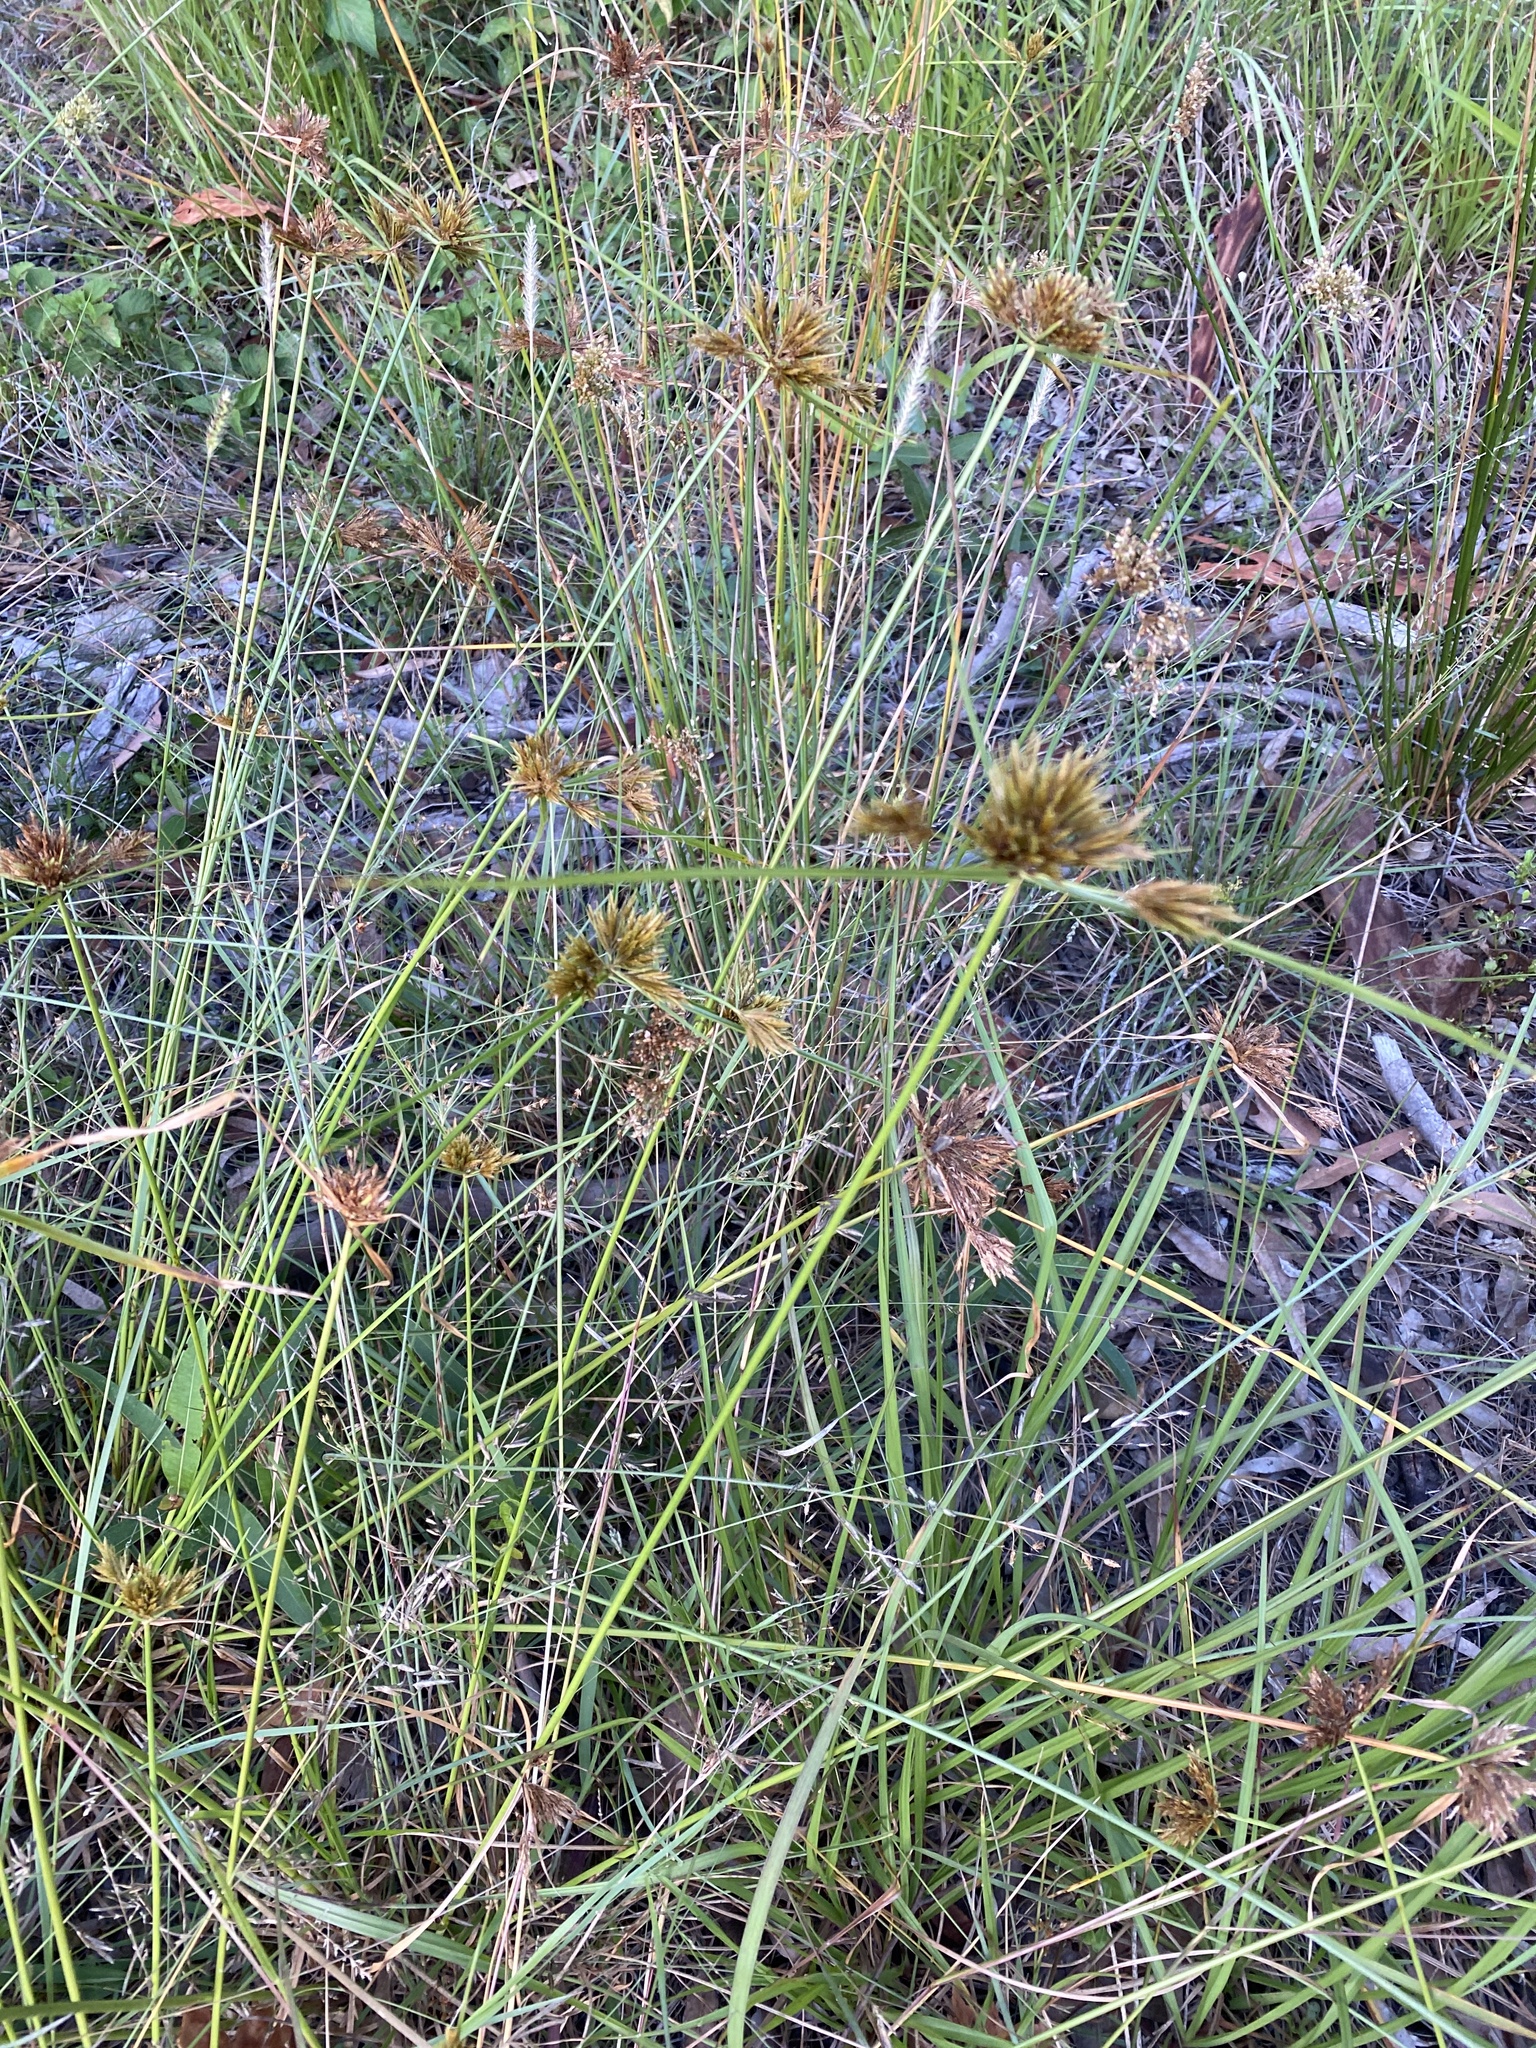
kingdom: Plantae
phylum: Tracheophyta
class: Liliopsida
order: Poales
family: Cyperaceae
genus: Cyperus
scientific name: Cyperus polystachyos
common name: Bunchy flat sedge
